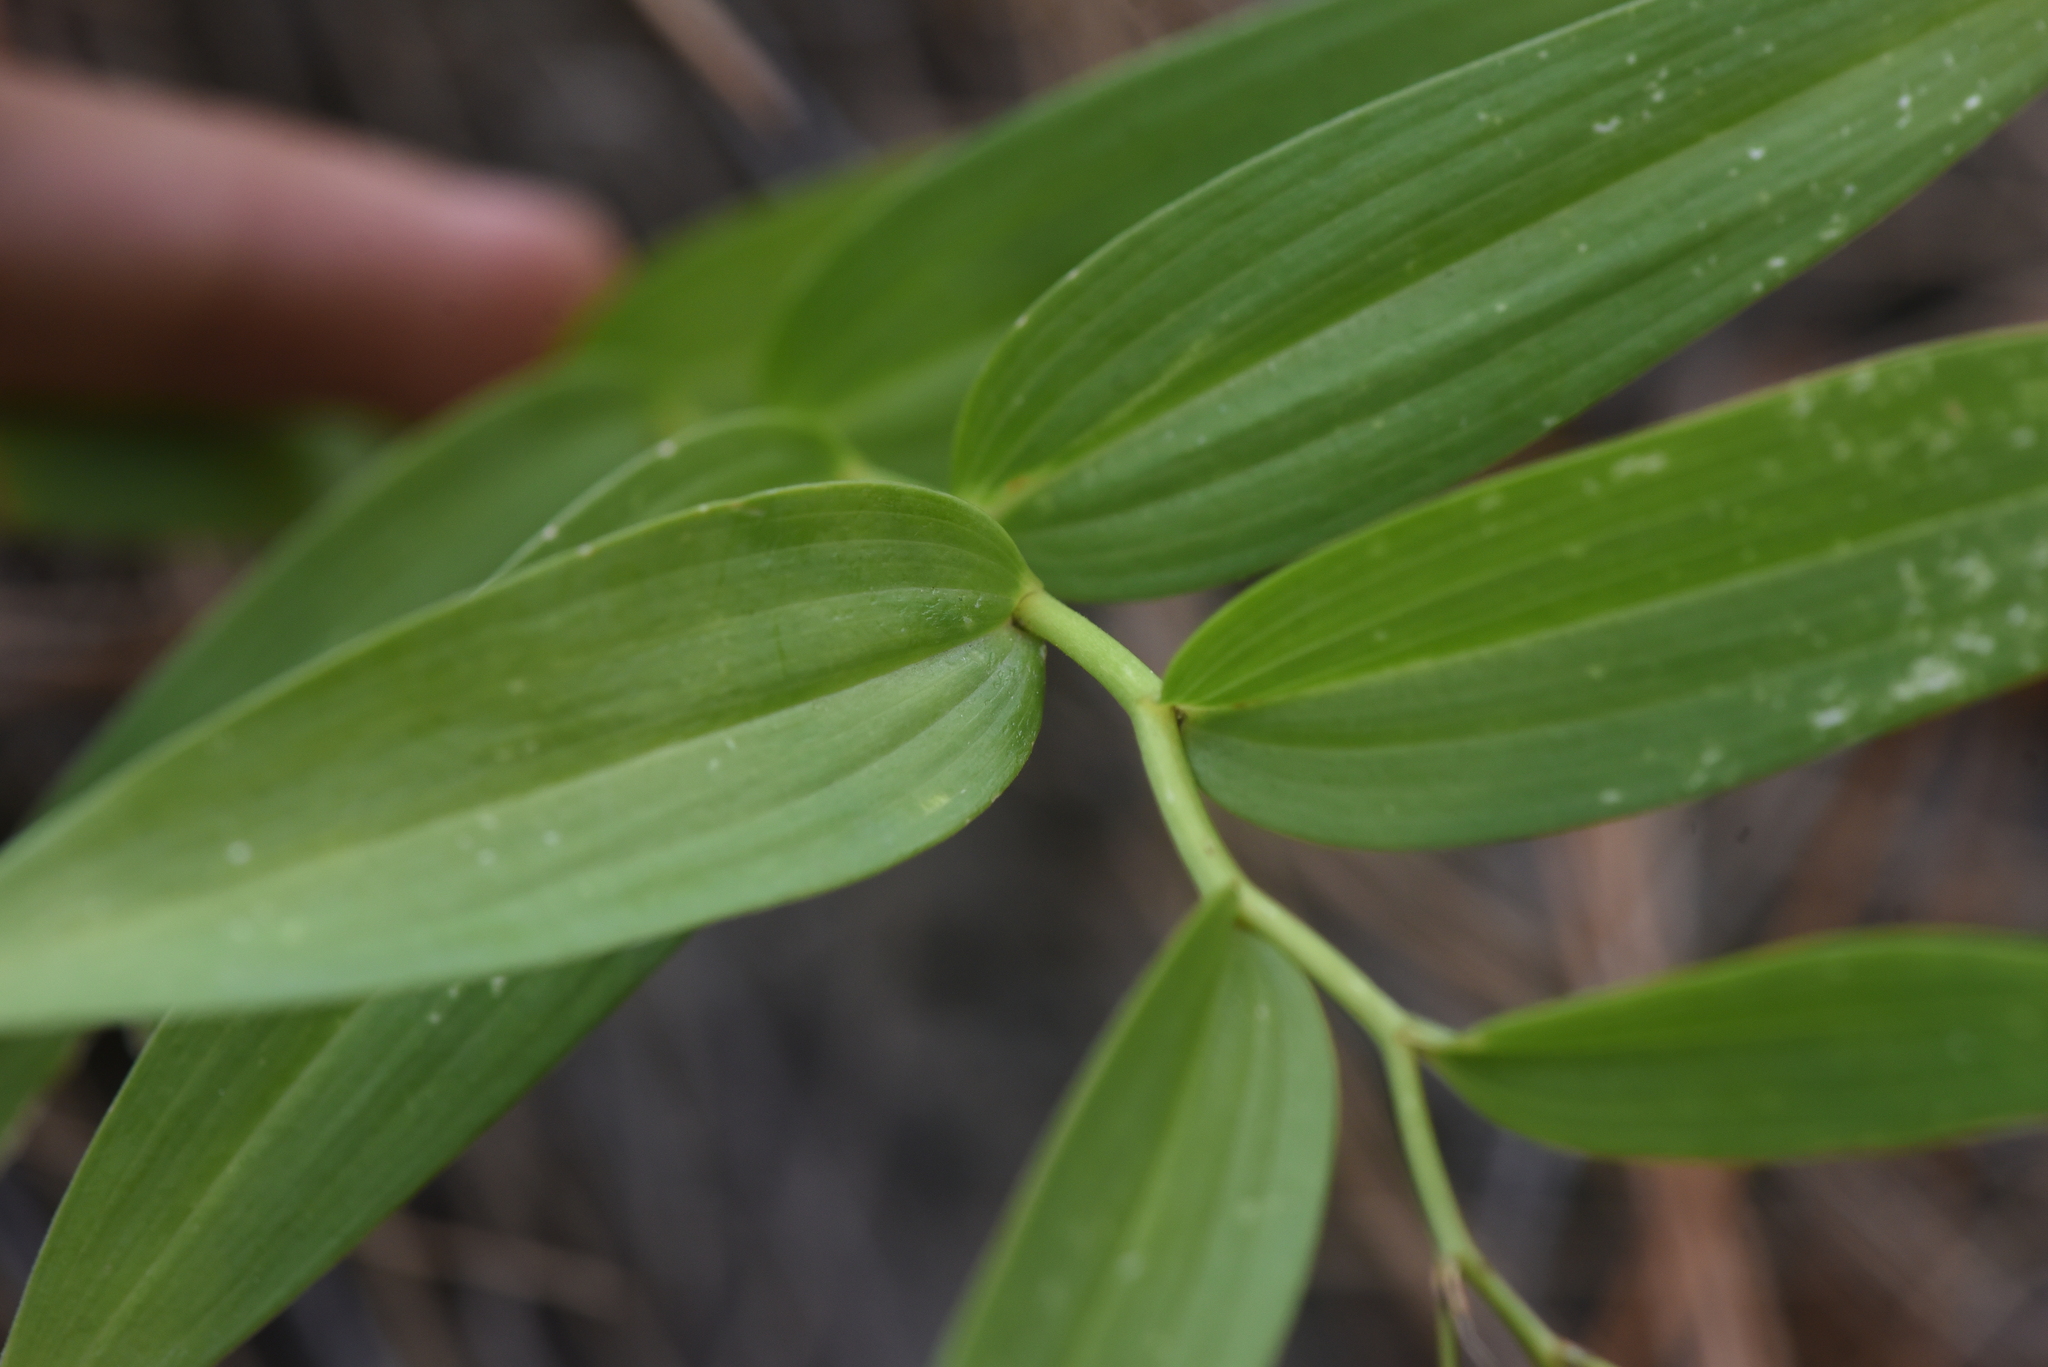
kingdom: Plantae
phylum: Tracheophyta
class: Liliopsida
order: Asparagales
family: Asparagaceae
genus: Maianthemum
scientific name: Maianthemum stellatum
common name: Little false solomon's seal
